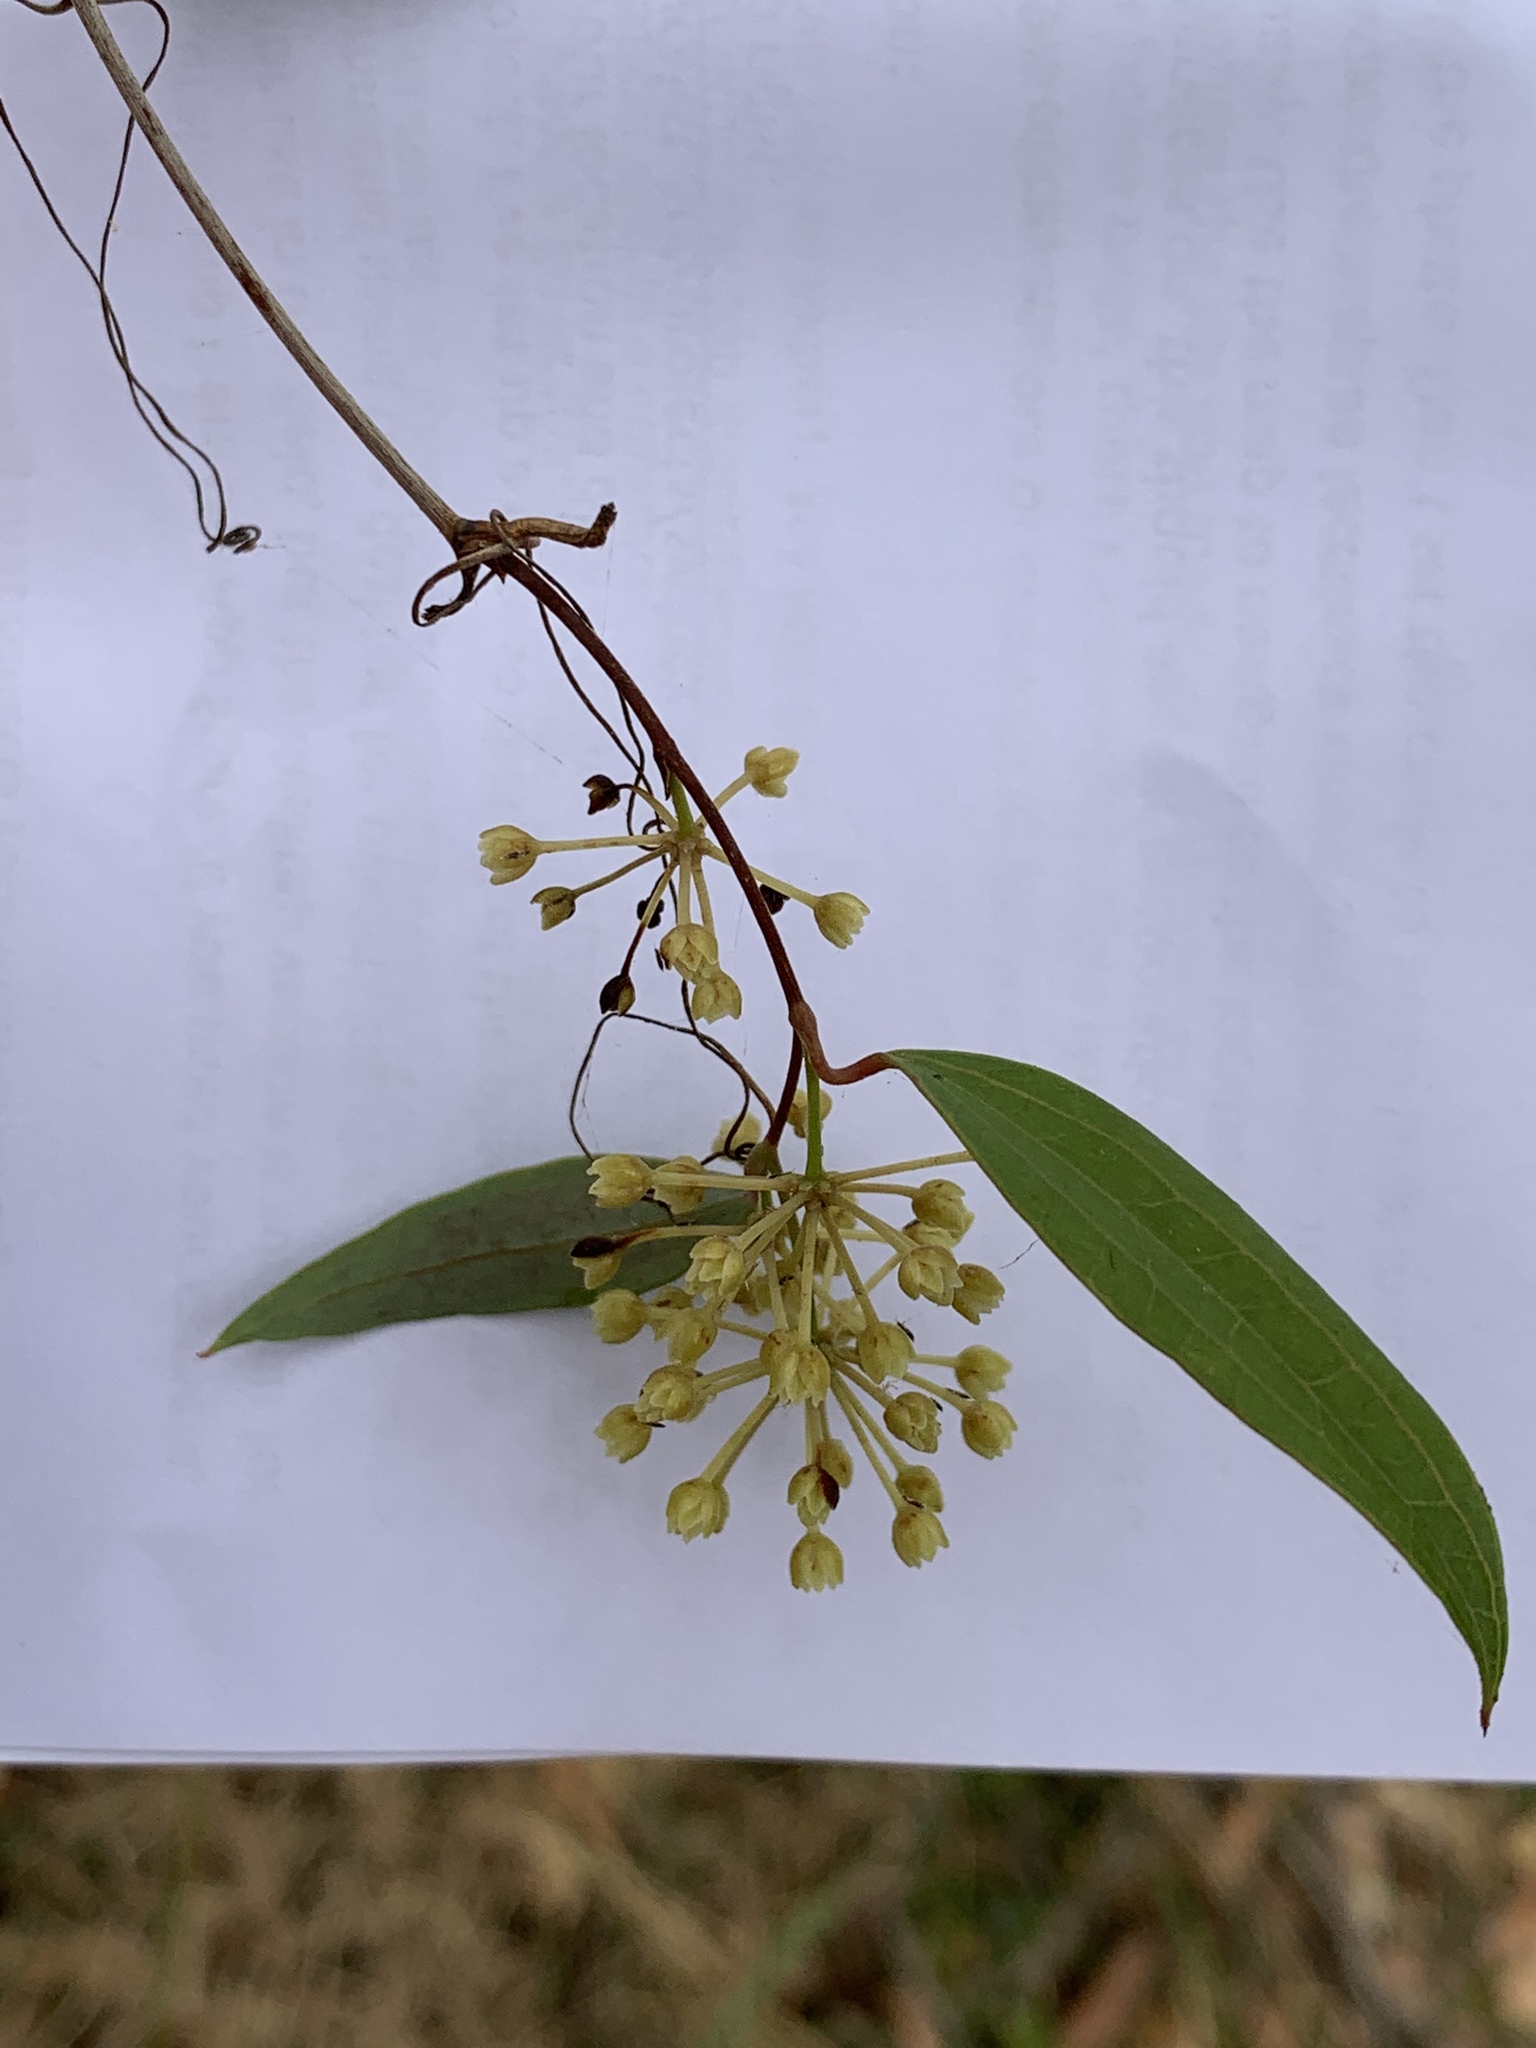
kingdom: Plantae
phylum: Tracheophyta
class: Liliopsida
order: Liliales
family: Smilacaceae
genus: Smilax
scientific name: Smilax glyciphylla
